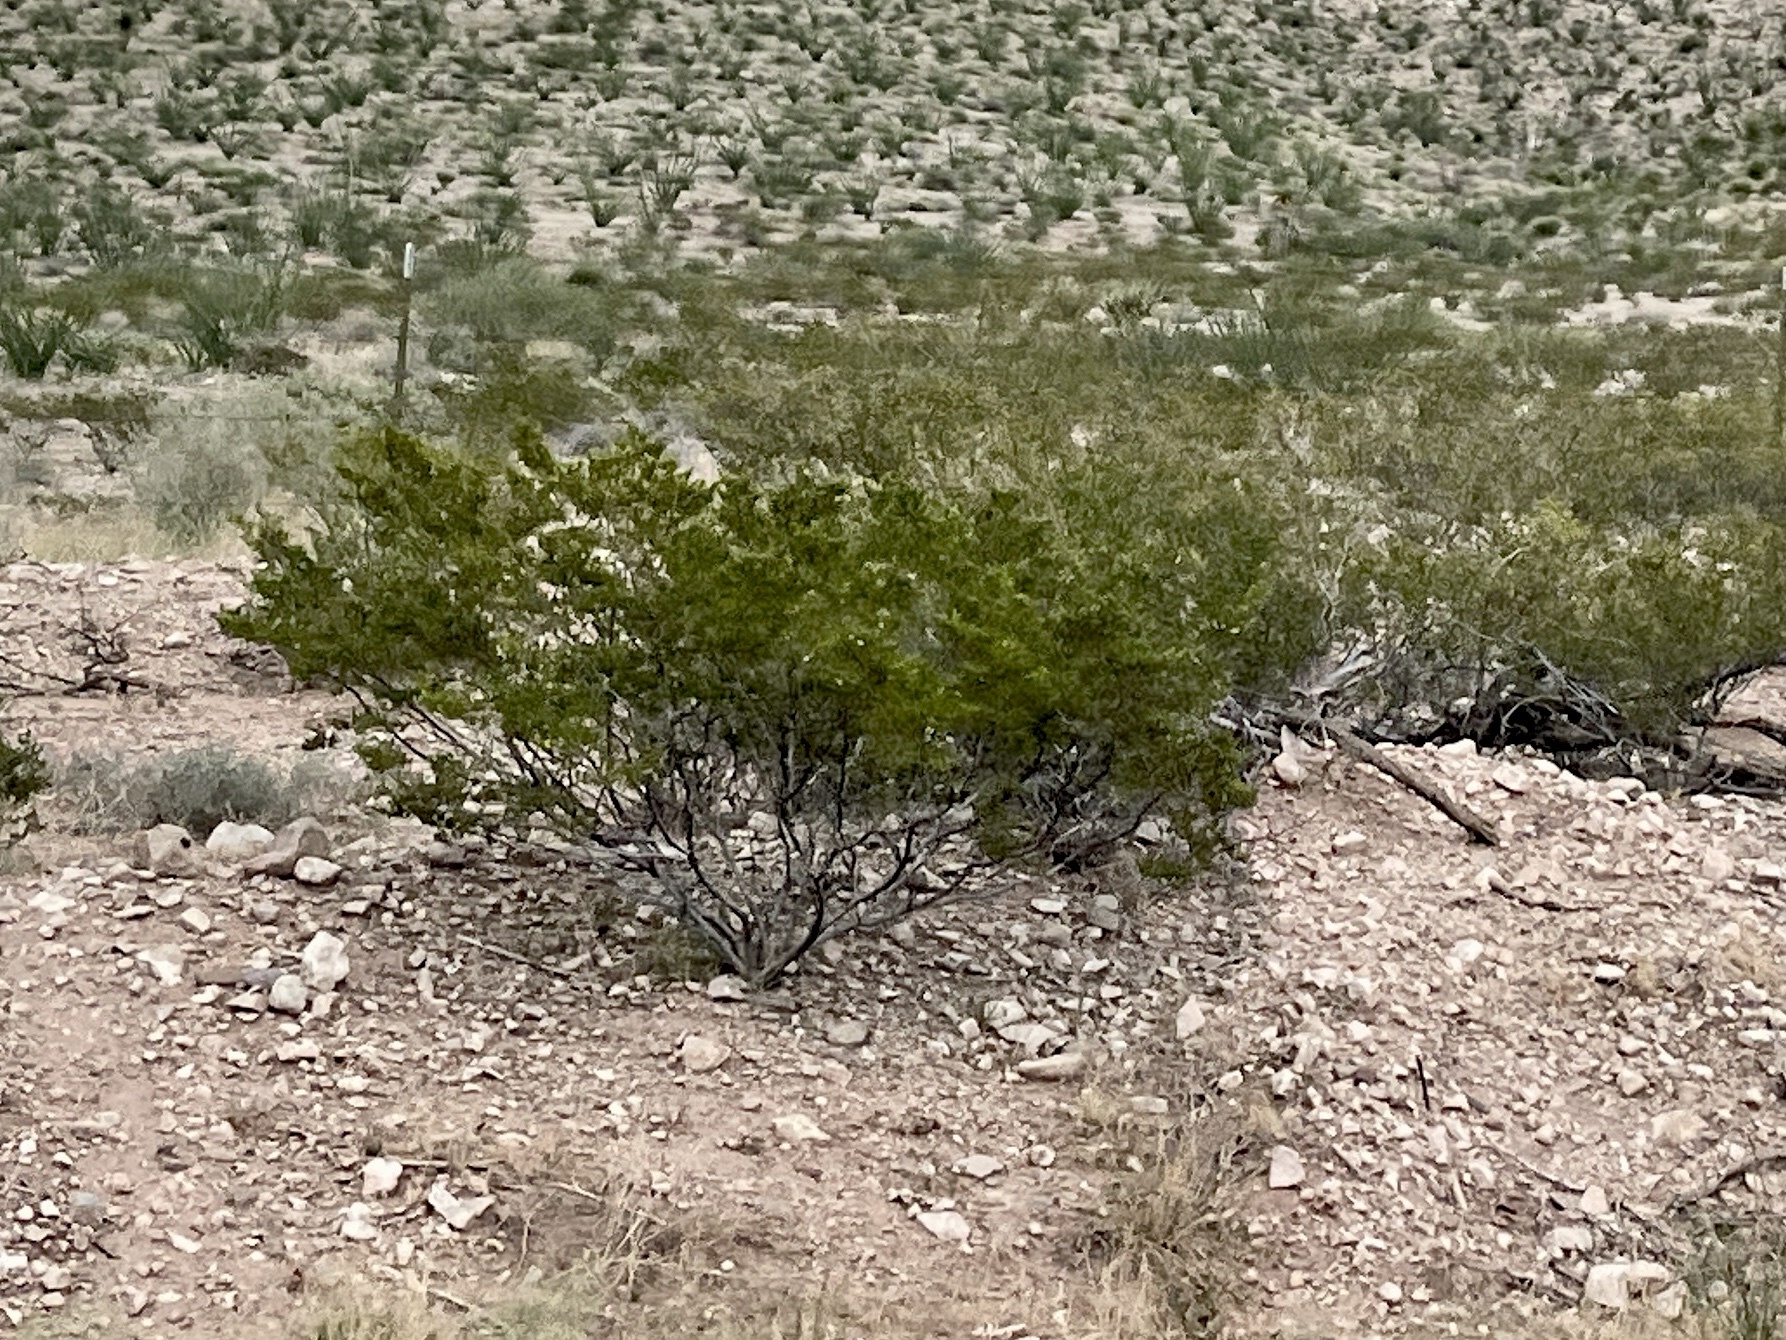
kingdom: Plantae
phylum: Tracheophyta
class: Magnoliopsida
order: Zygophyllales
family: Zygophyllaceae
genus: Larrea
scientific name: Larrea tridentata
